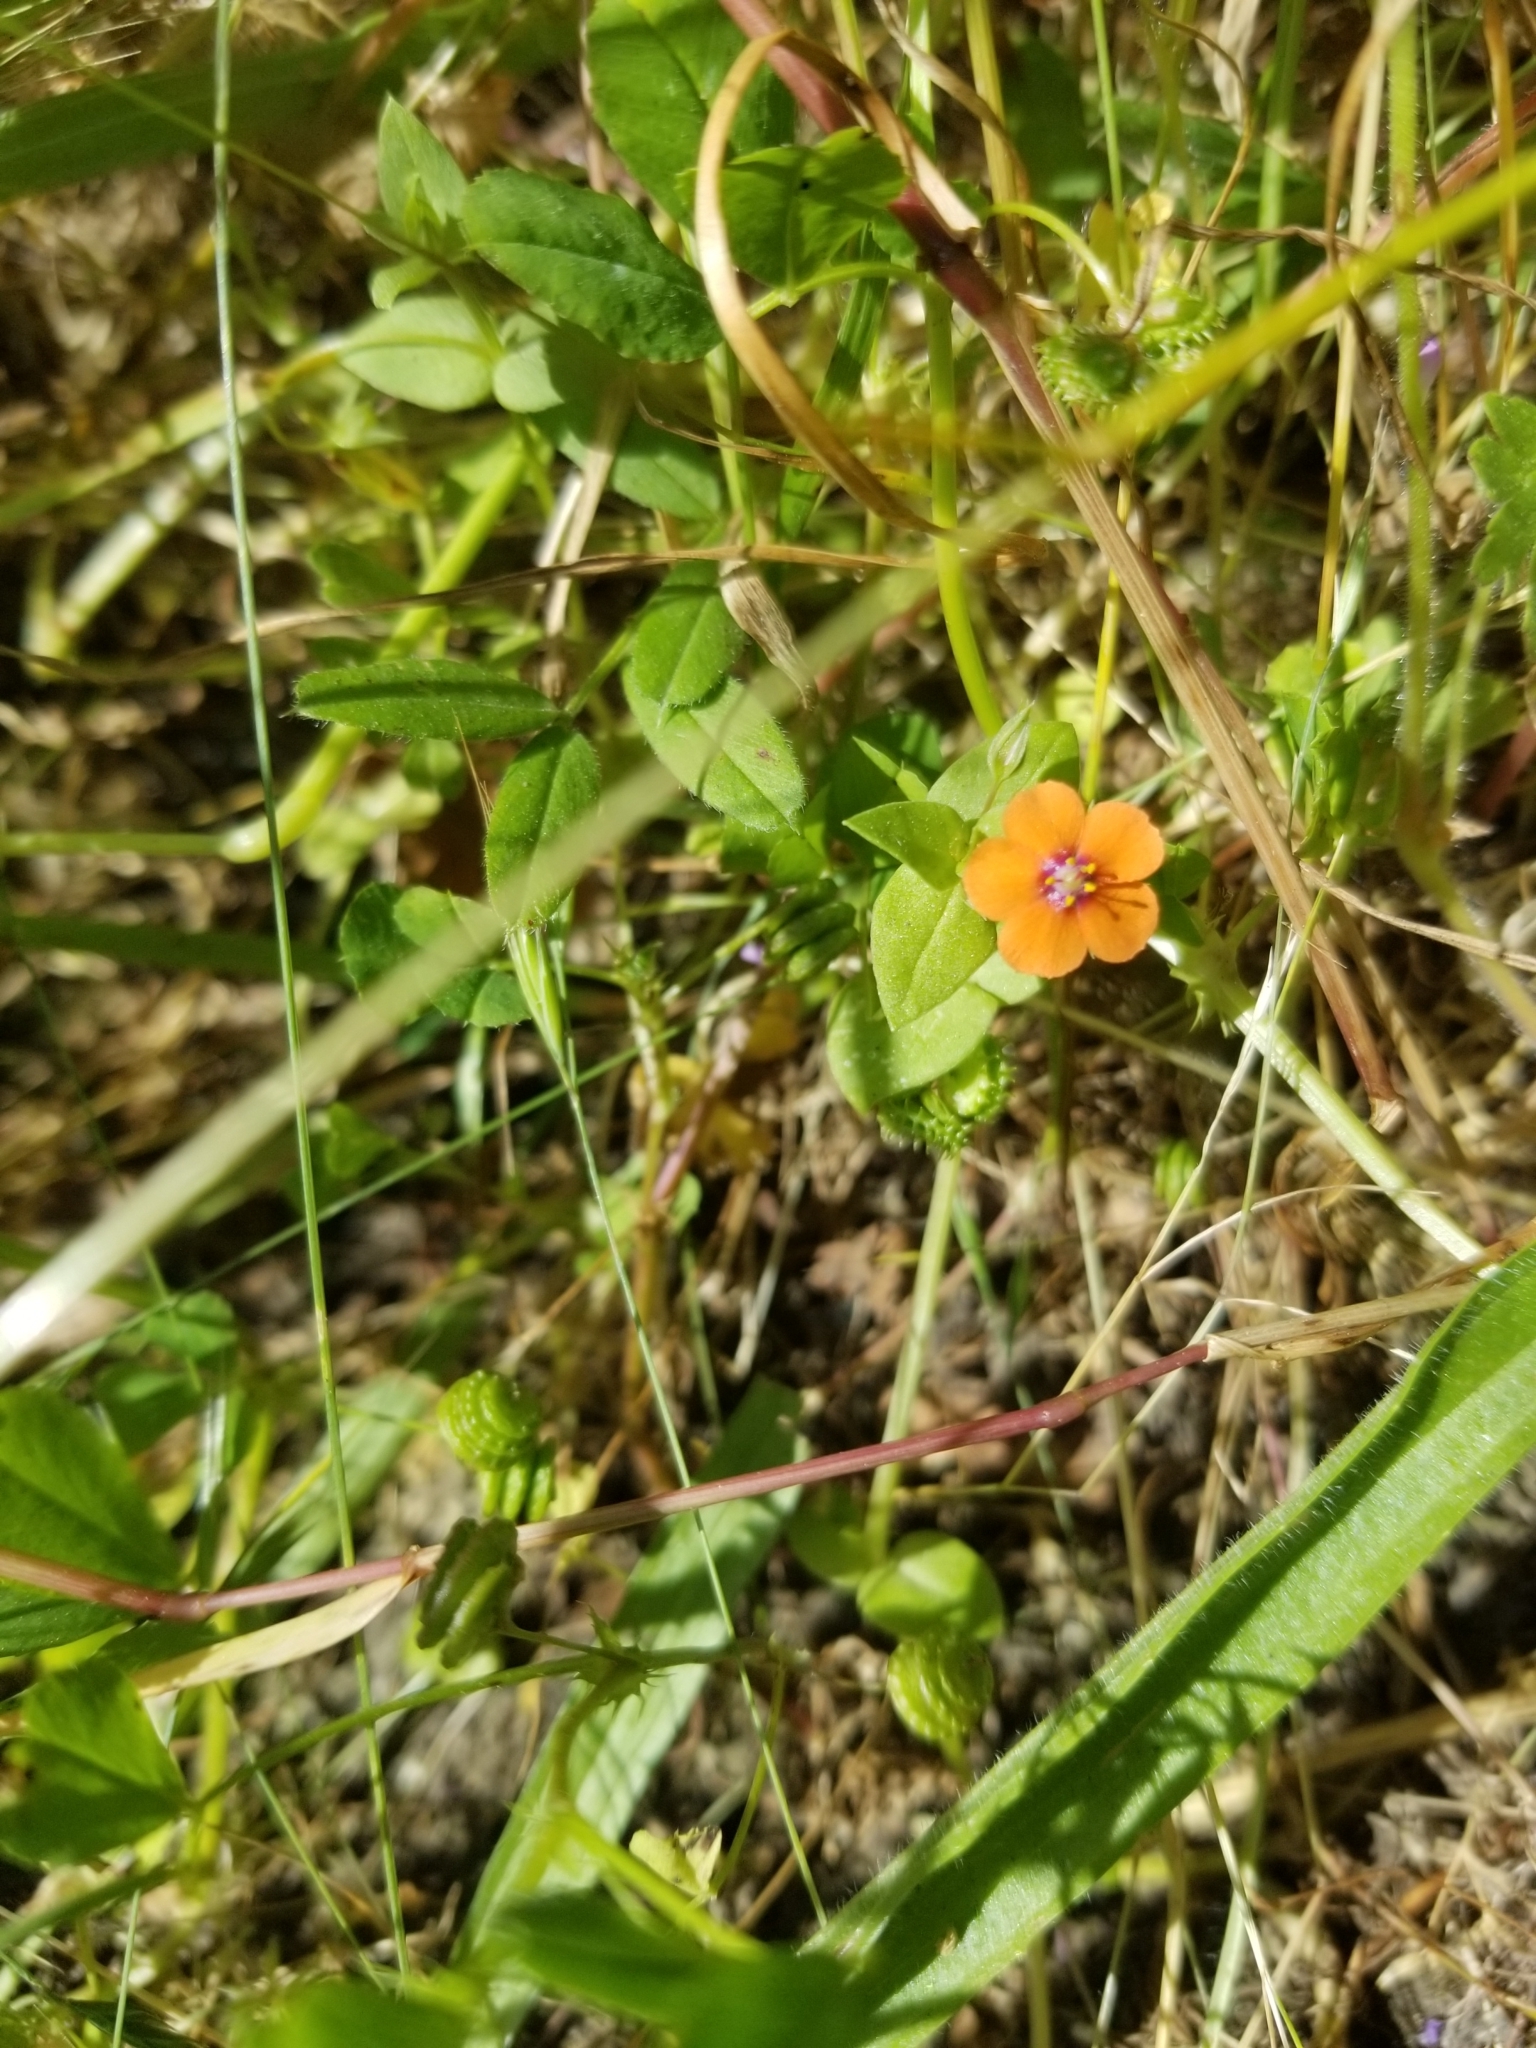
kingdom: Plantae
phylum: Tracheophyta
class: Magnoliopsida
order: Ericales
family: Primulaceae
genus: Lysimachia
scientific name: Lysimachia arvensis
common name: Scarlet pimpernel
